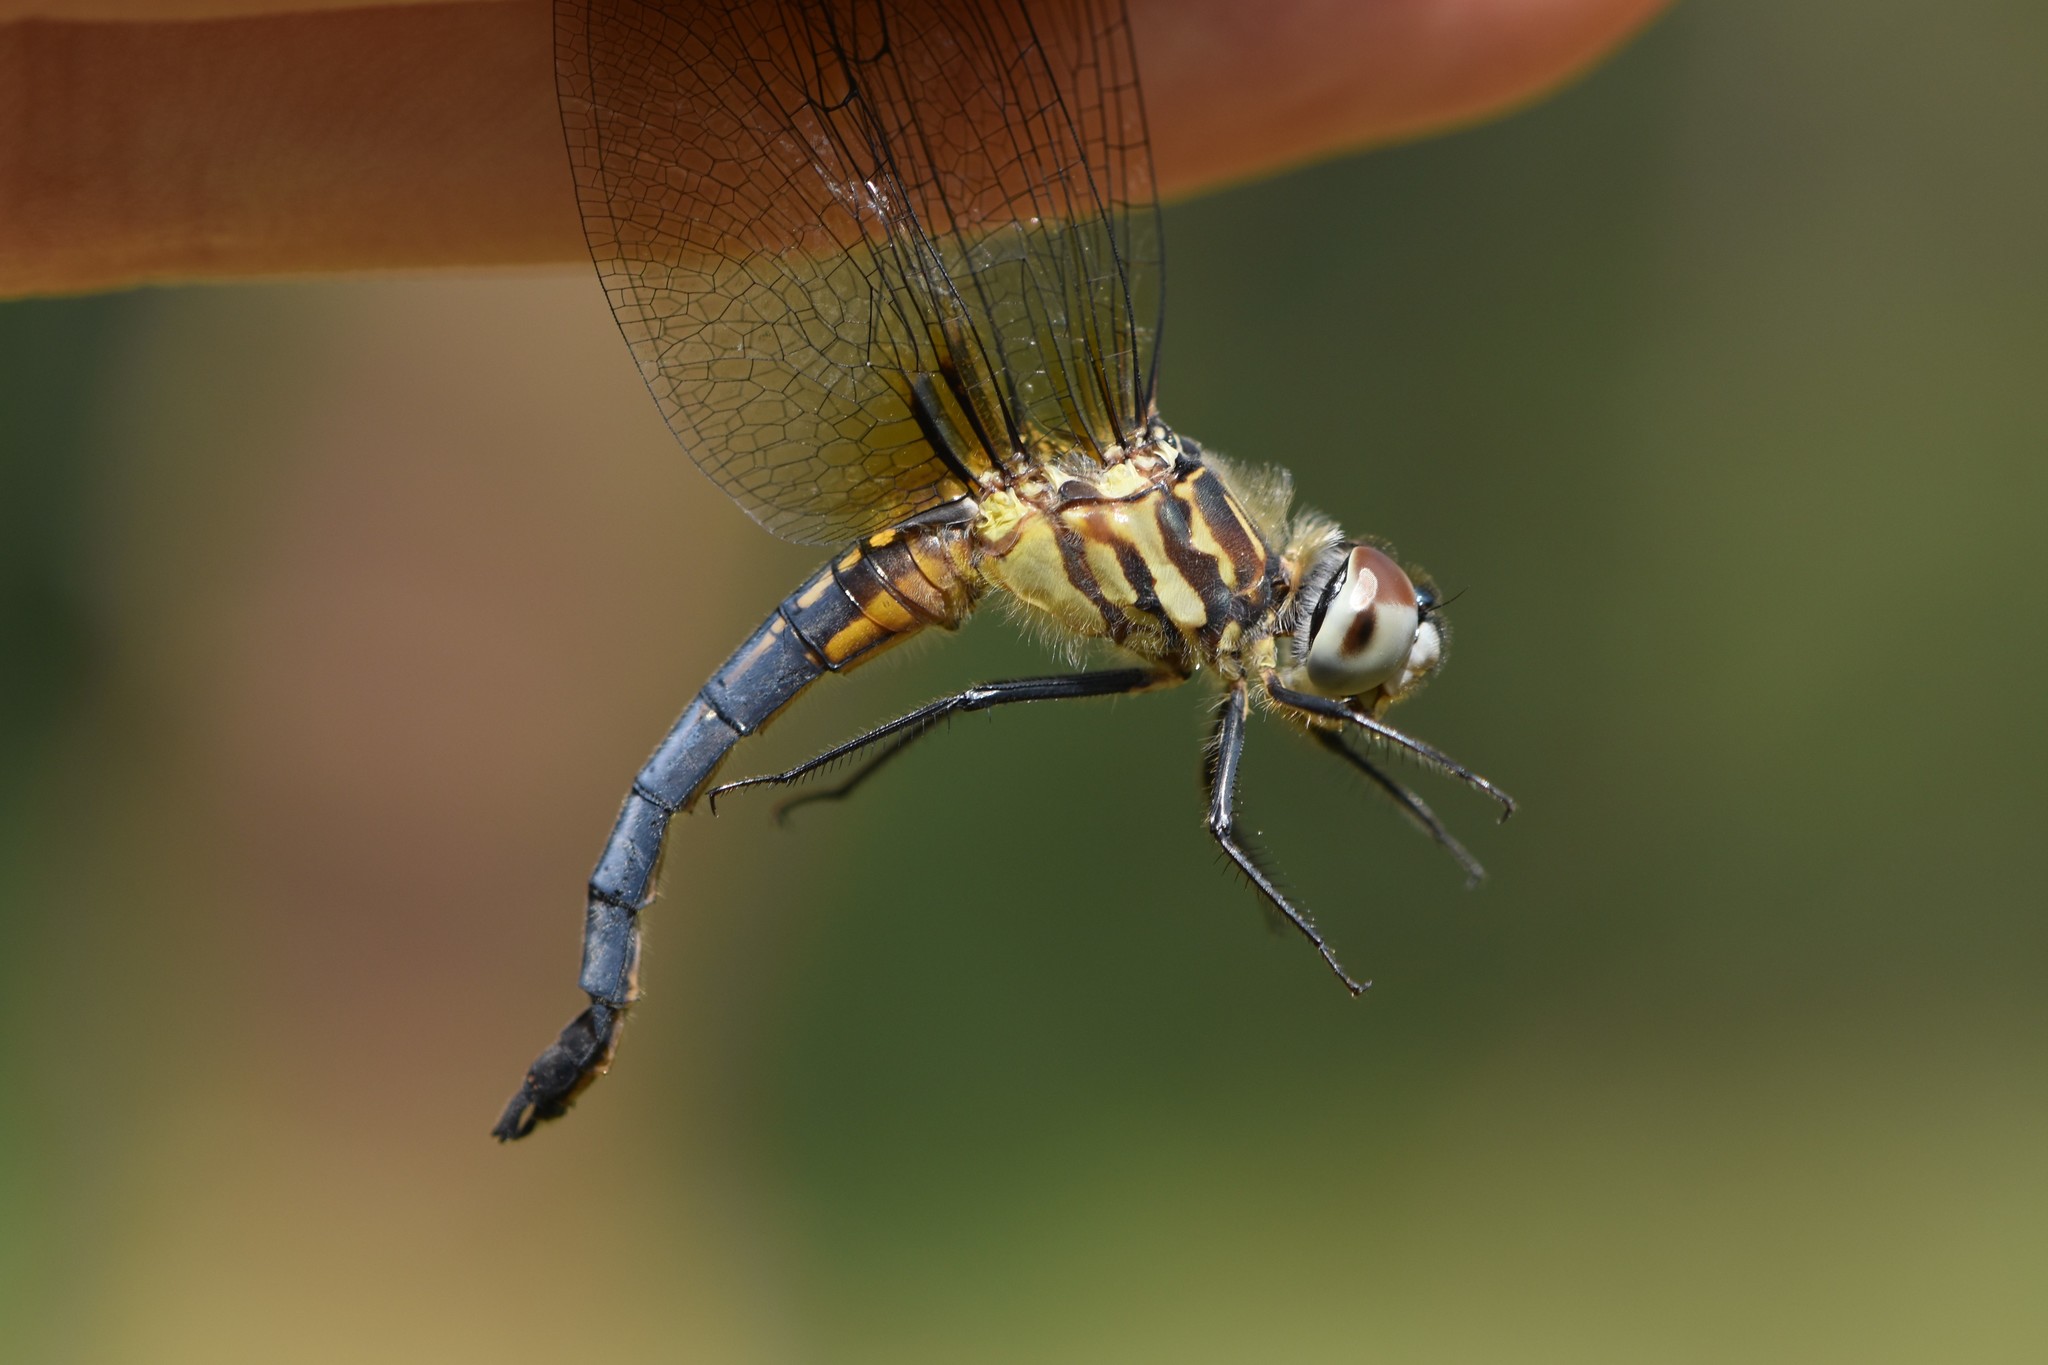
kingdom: Animalia
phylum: Arthropoda
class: Insecta
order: Odonata
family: Libellulidae
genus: Pachydiplax
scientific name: Pachydiplax longipennis
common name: Blue dasher
